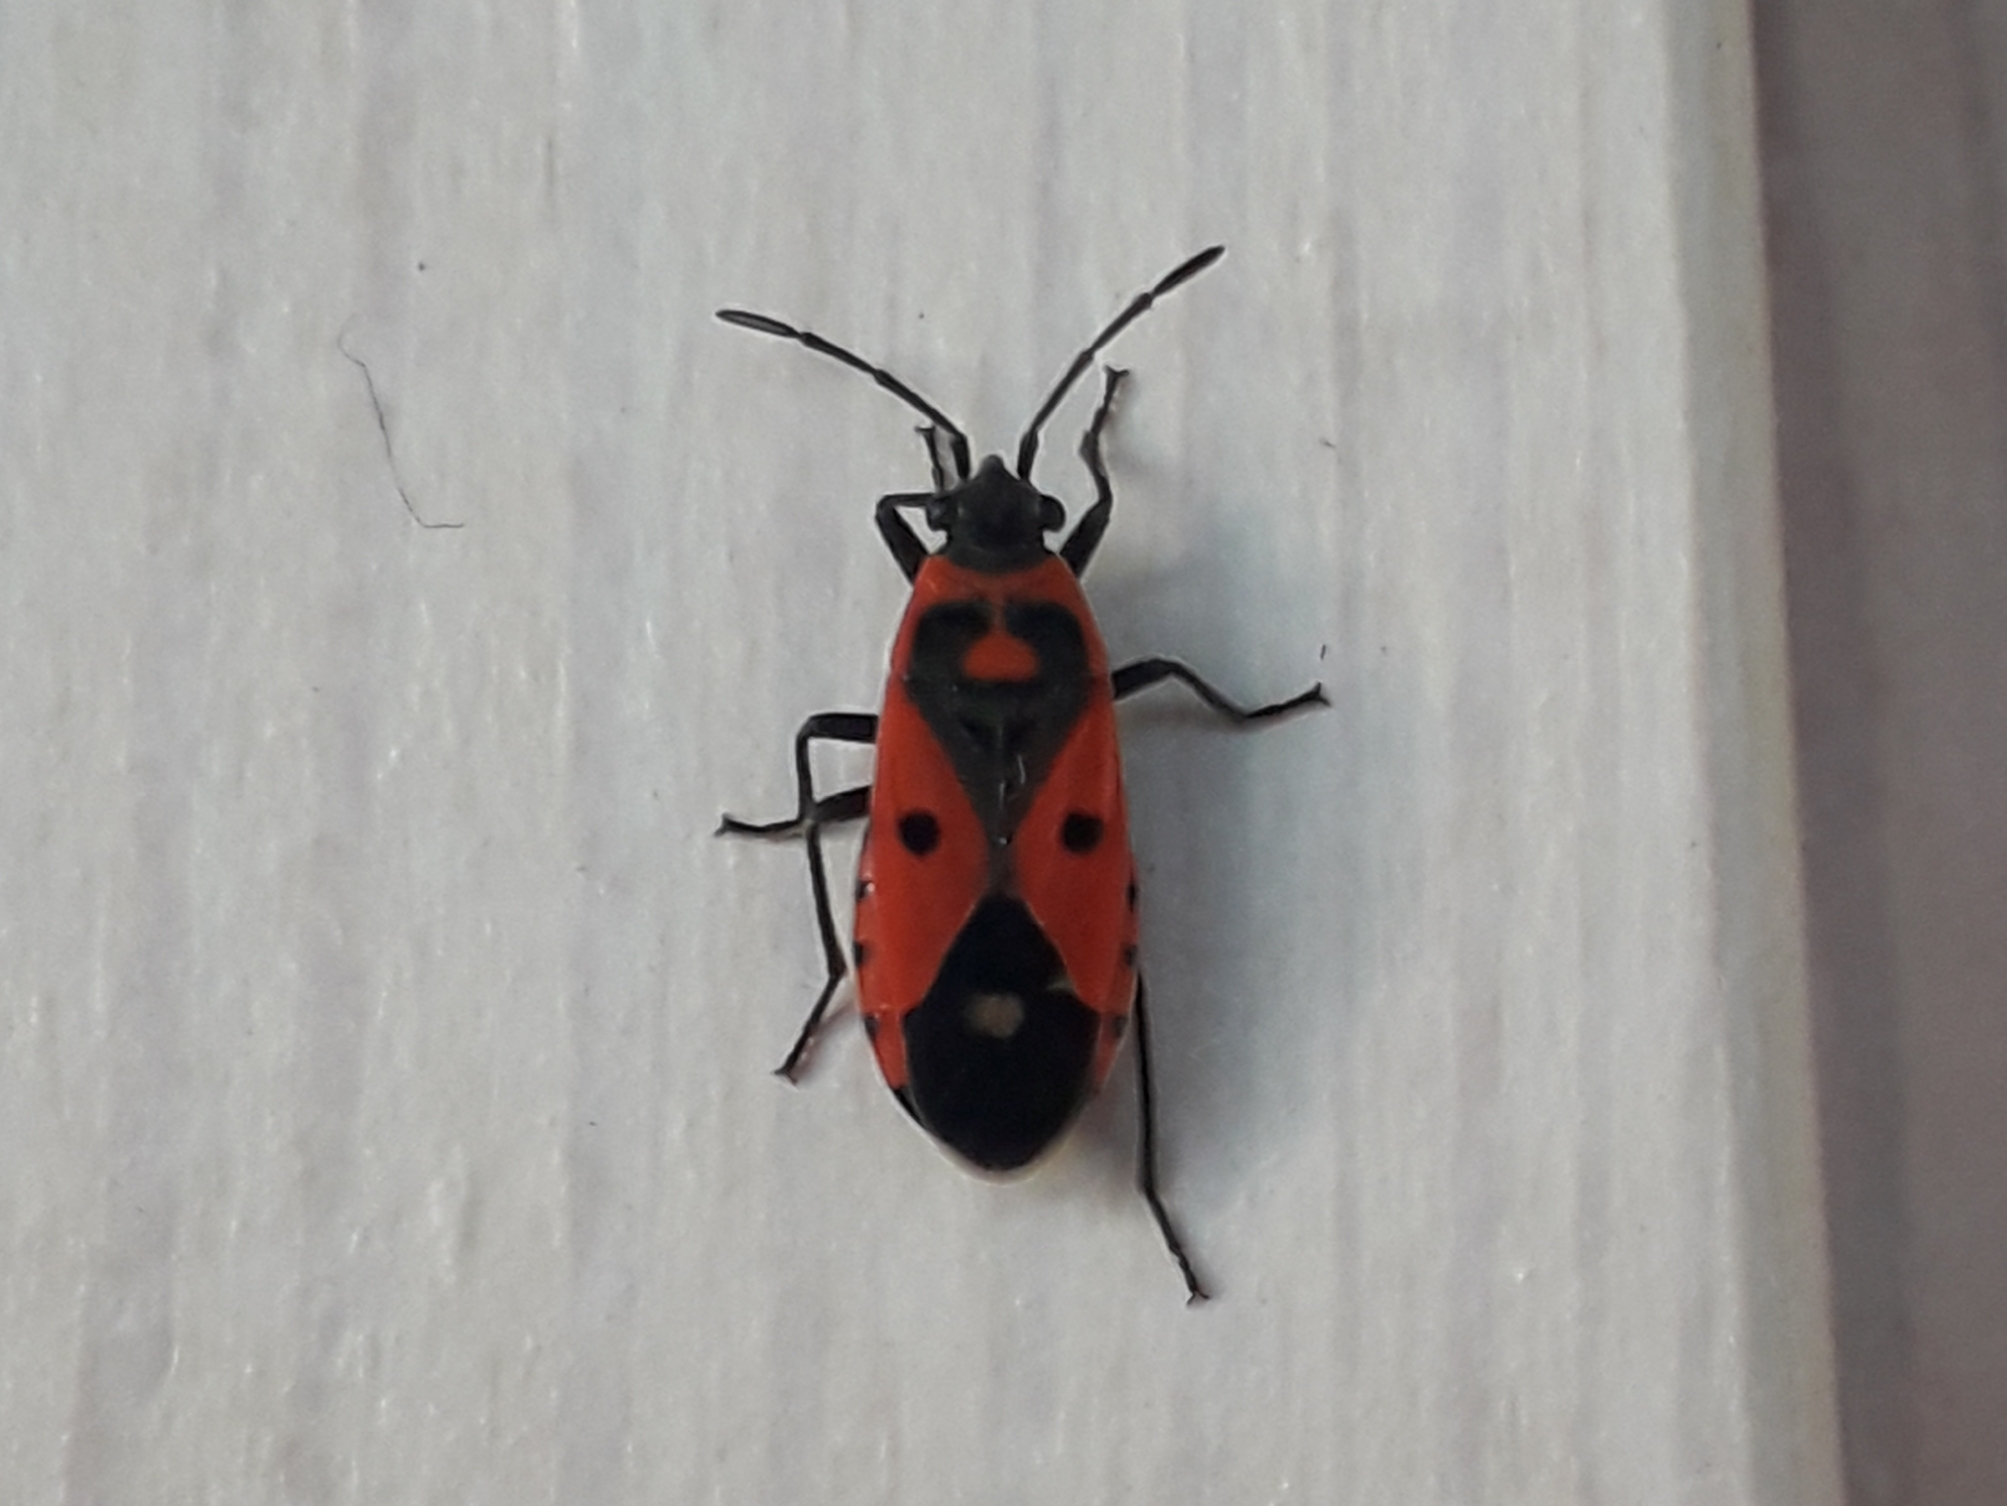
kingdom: Animalia
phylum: Arthropoda
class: Insecta
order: Hemiptera
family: Lygaeidae
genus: Melanocoryphus
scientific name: Melanocoryphus albomaculatus
